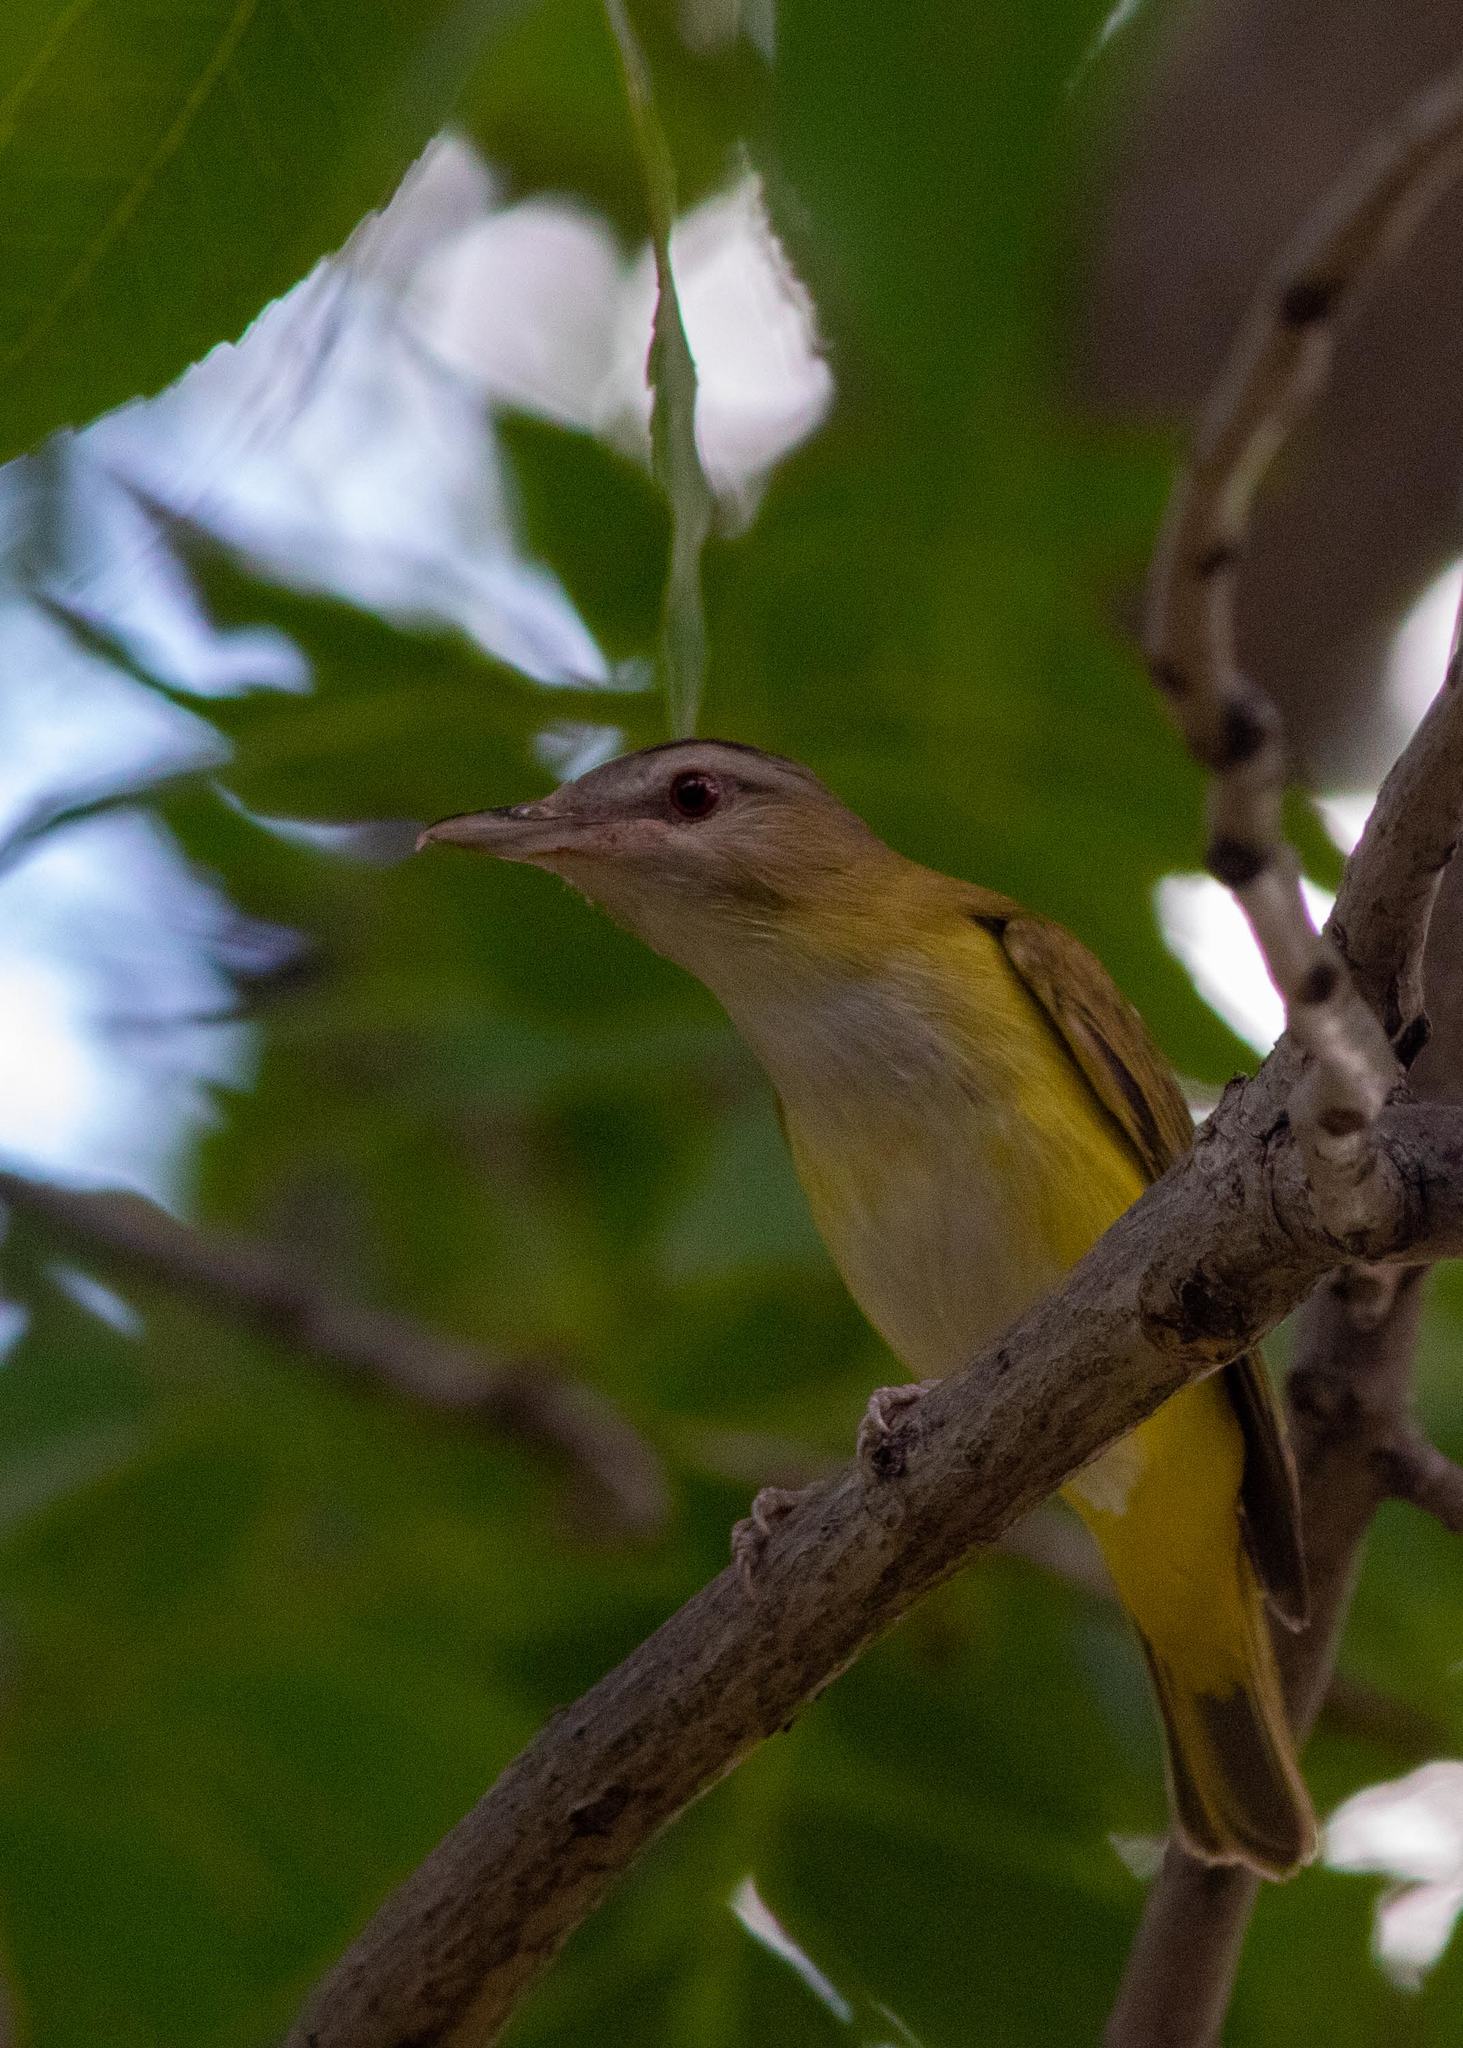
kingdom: Animalia
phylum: Chordata
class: Aves
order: Passeriformes
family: Vireonidae
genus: Vireo
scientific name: Vireo flavoviridis
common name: Yellow-green vireo
